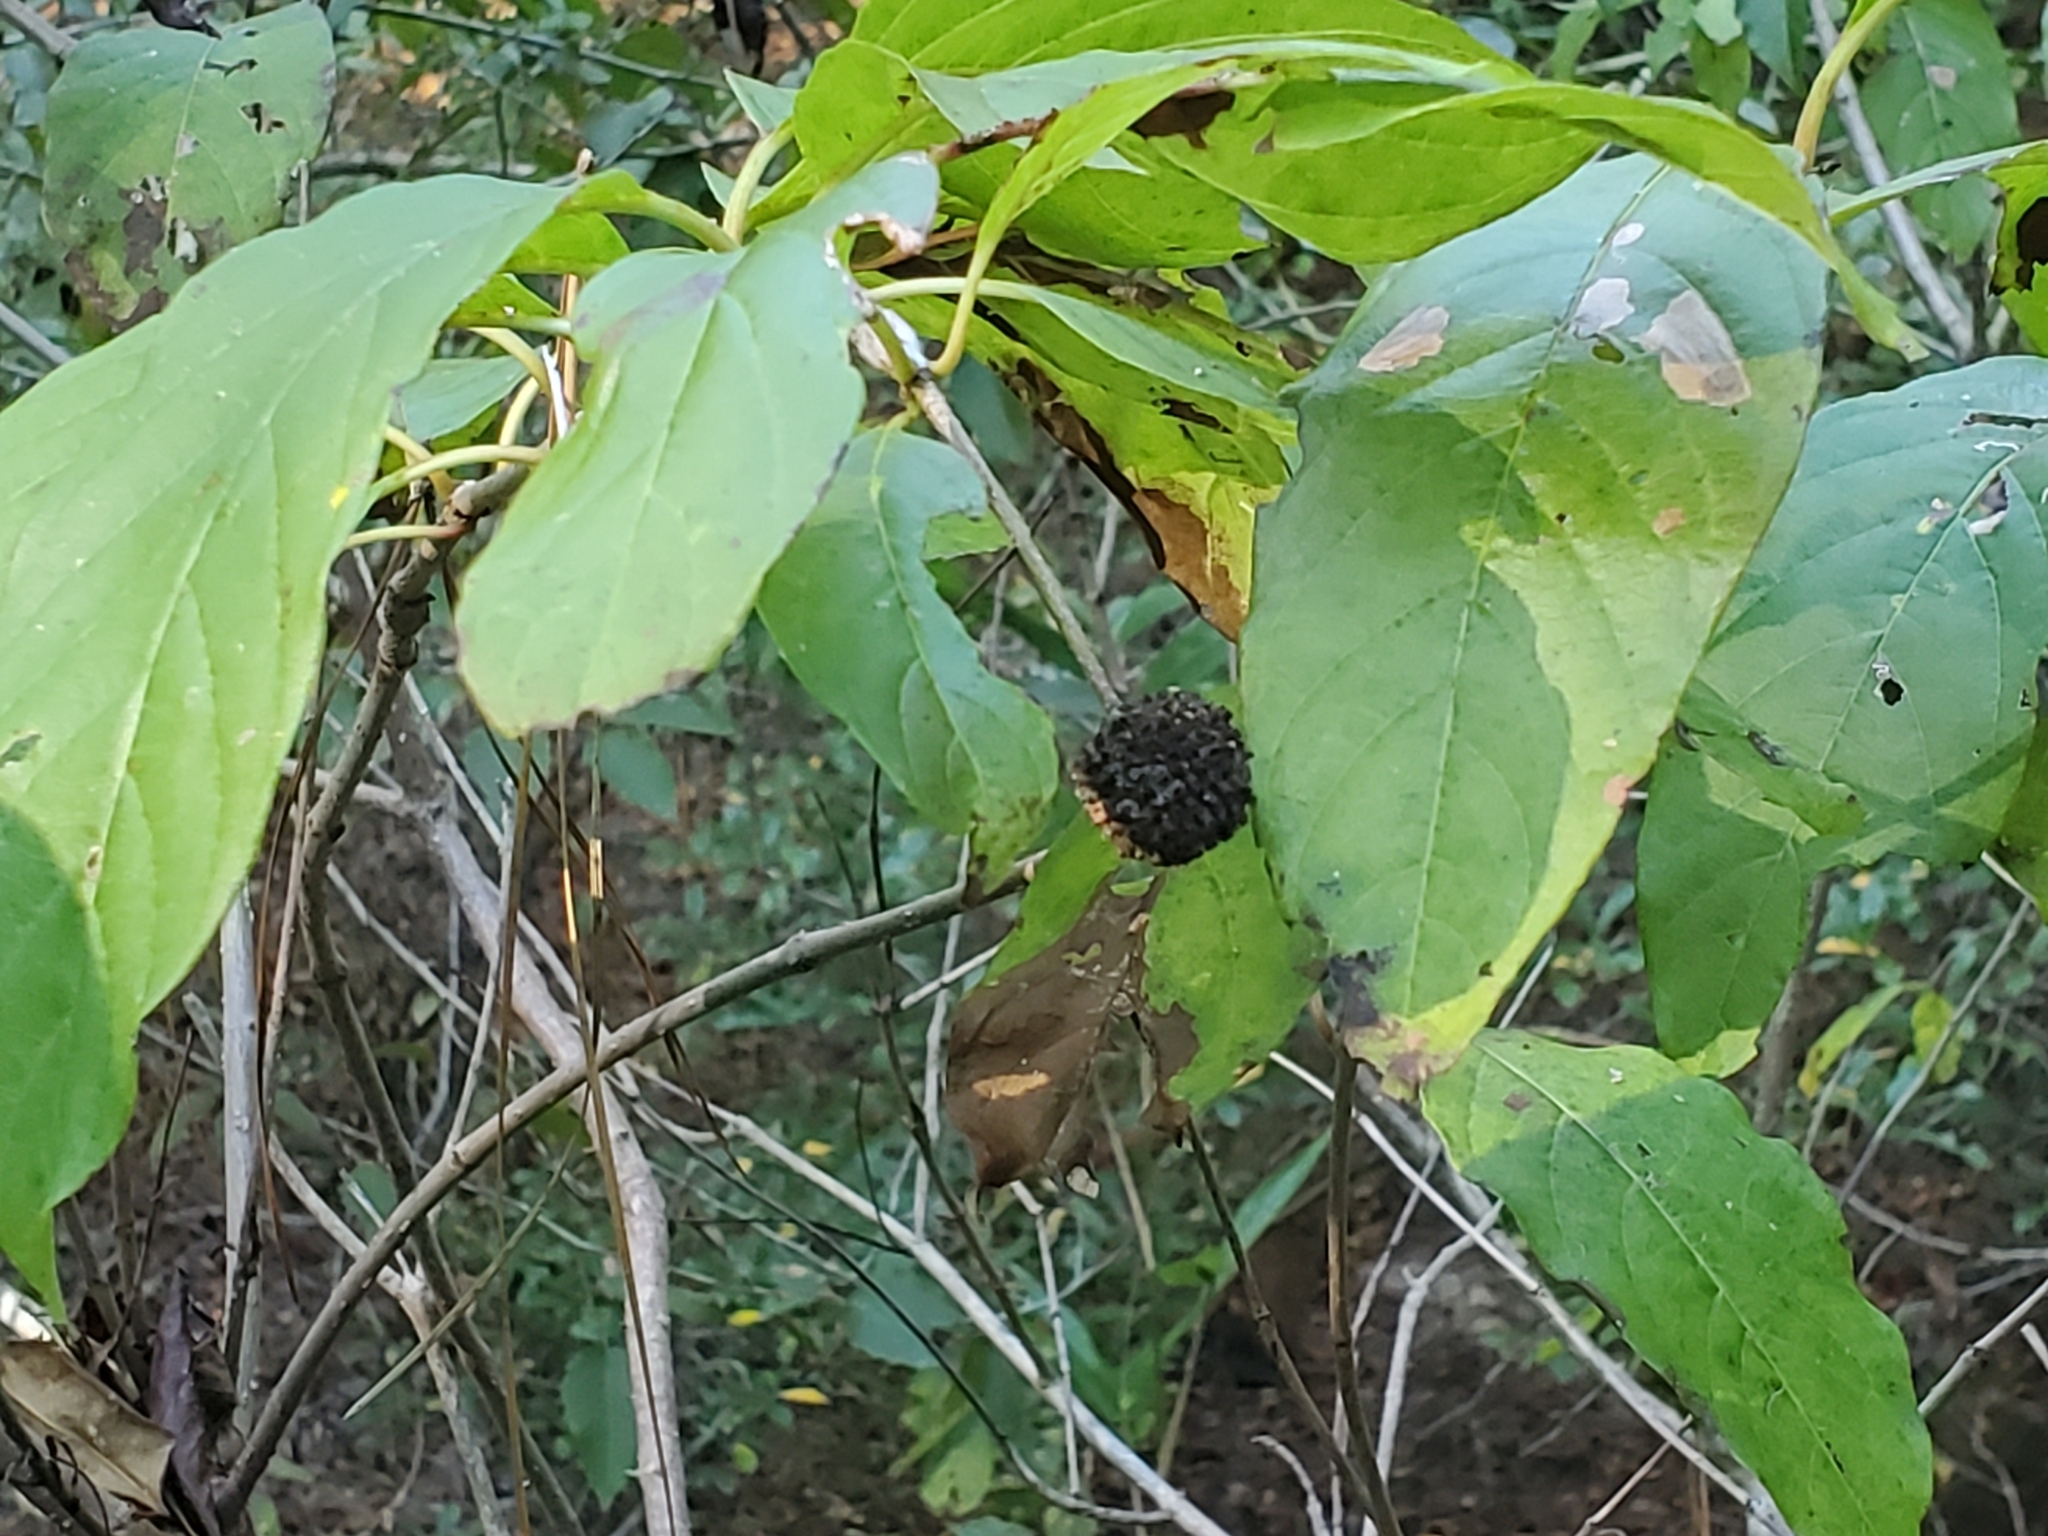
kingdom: Plantae
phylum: Tracheophyta
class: Magnoliopsida
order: Gentianales
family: Rubiaceae
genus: Cephalanthus
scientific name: Cephalanthus occidentalis
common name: Button-willow
